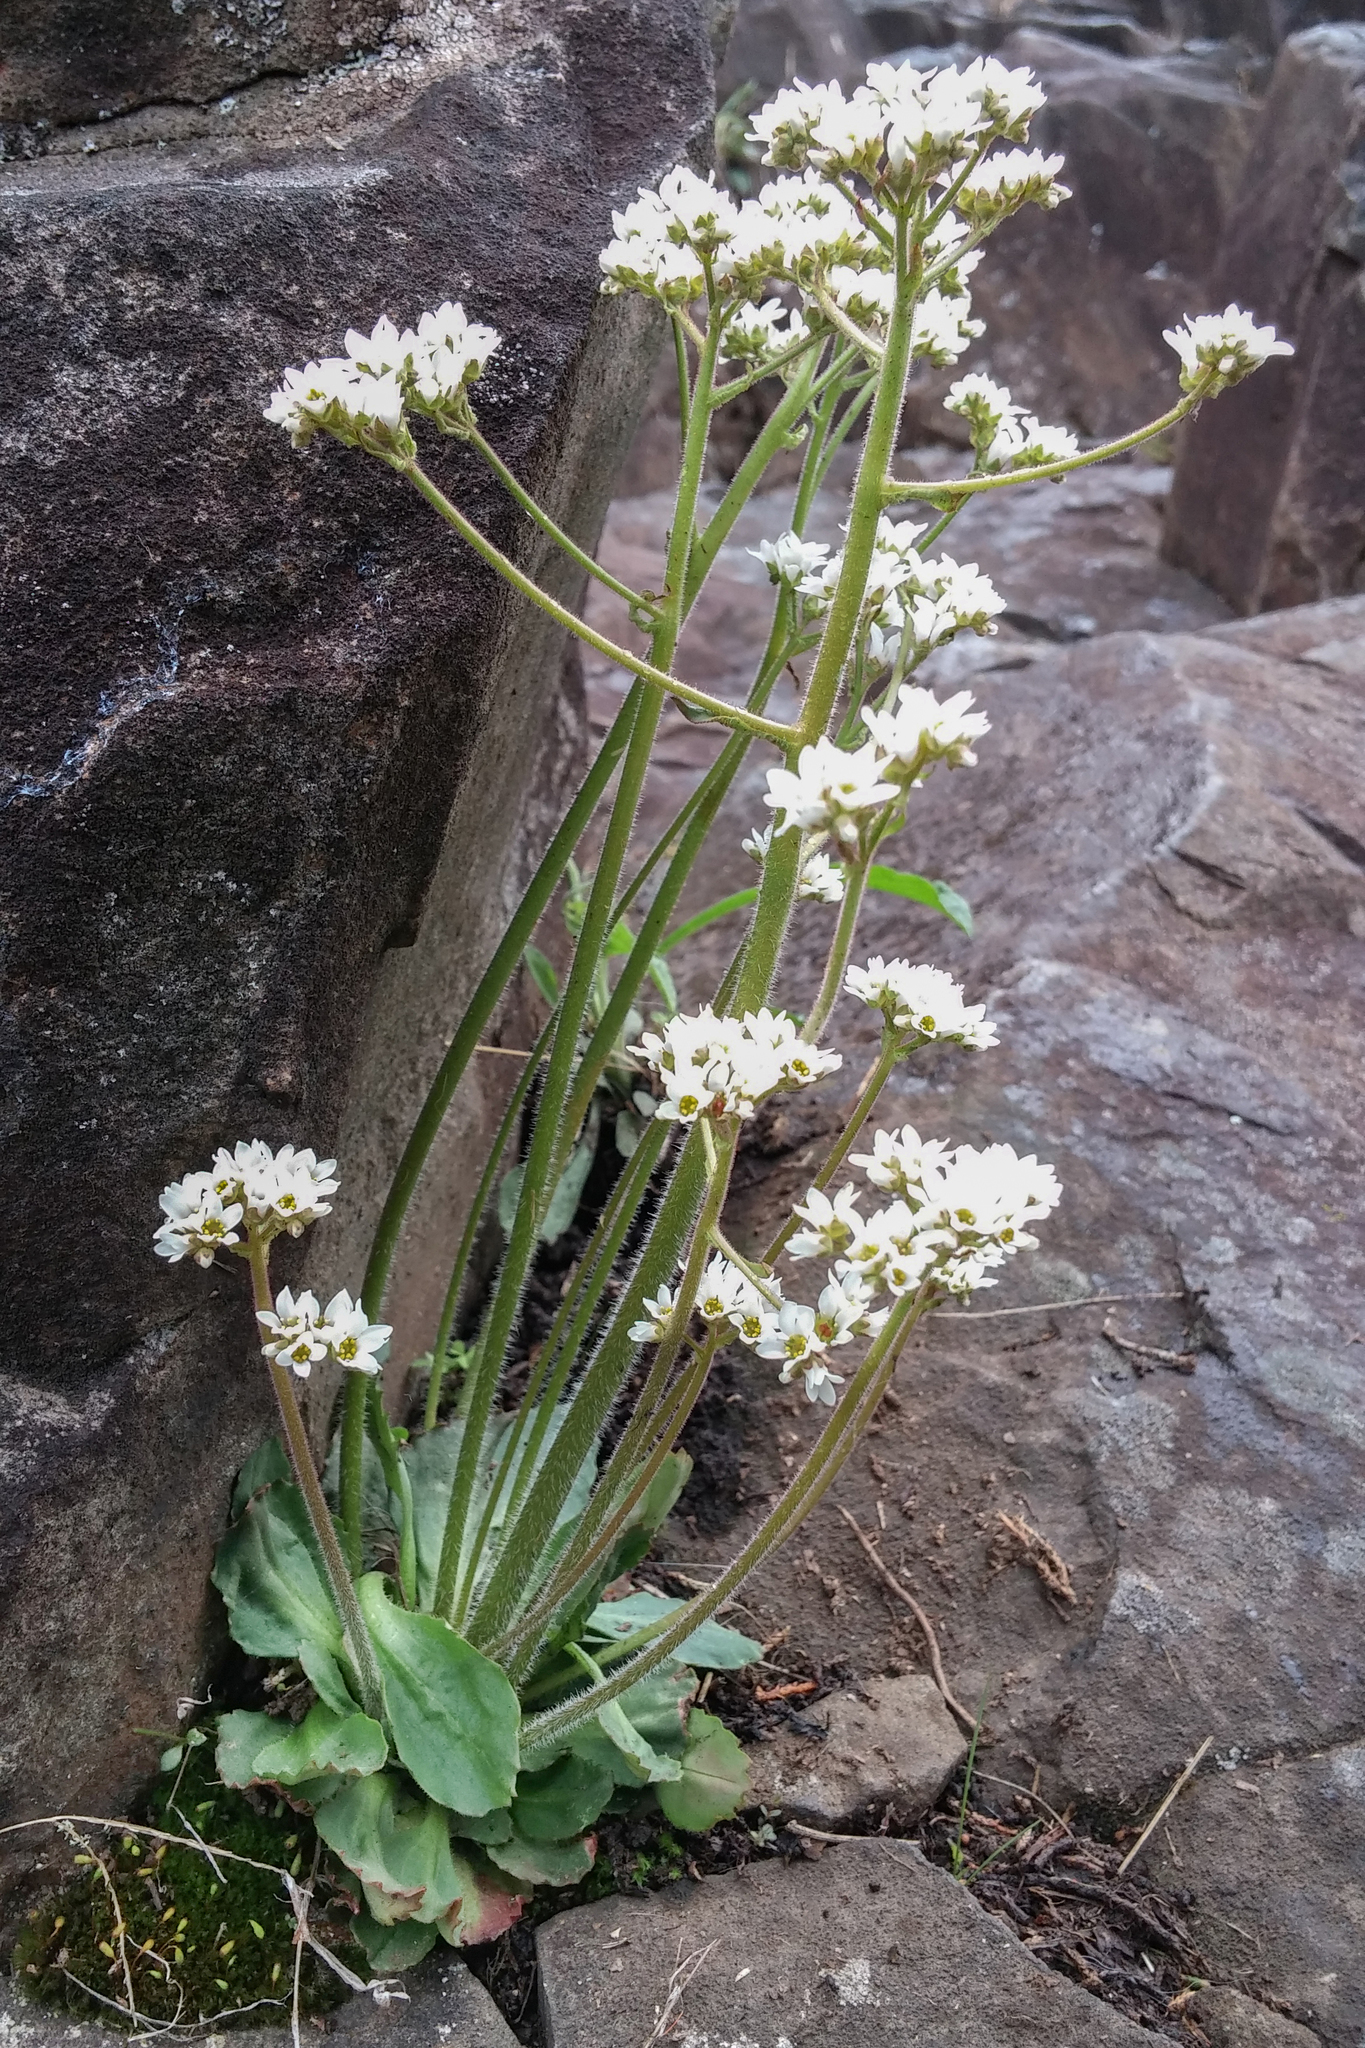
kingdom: Plantae
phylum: Tracheophyta
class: Magnoliopsida
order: Saxifragales
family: Saxifragaceae
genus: Micranthes
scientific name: Micranthes virginiensis
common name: Early saxifrage
